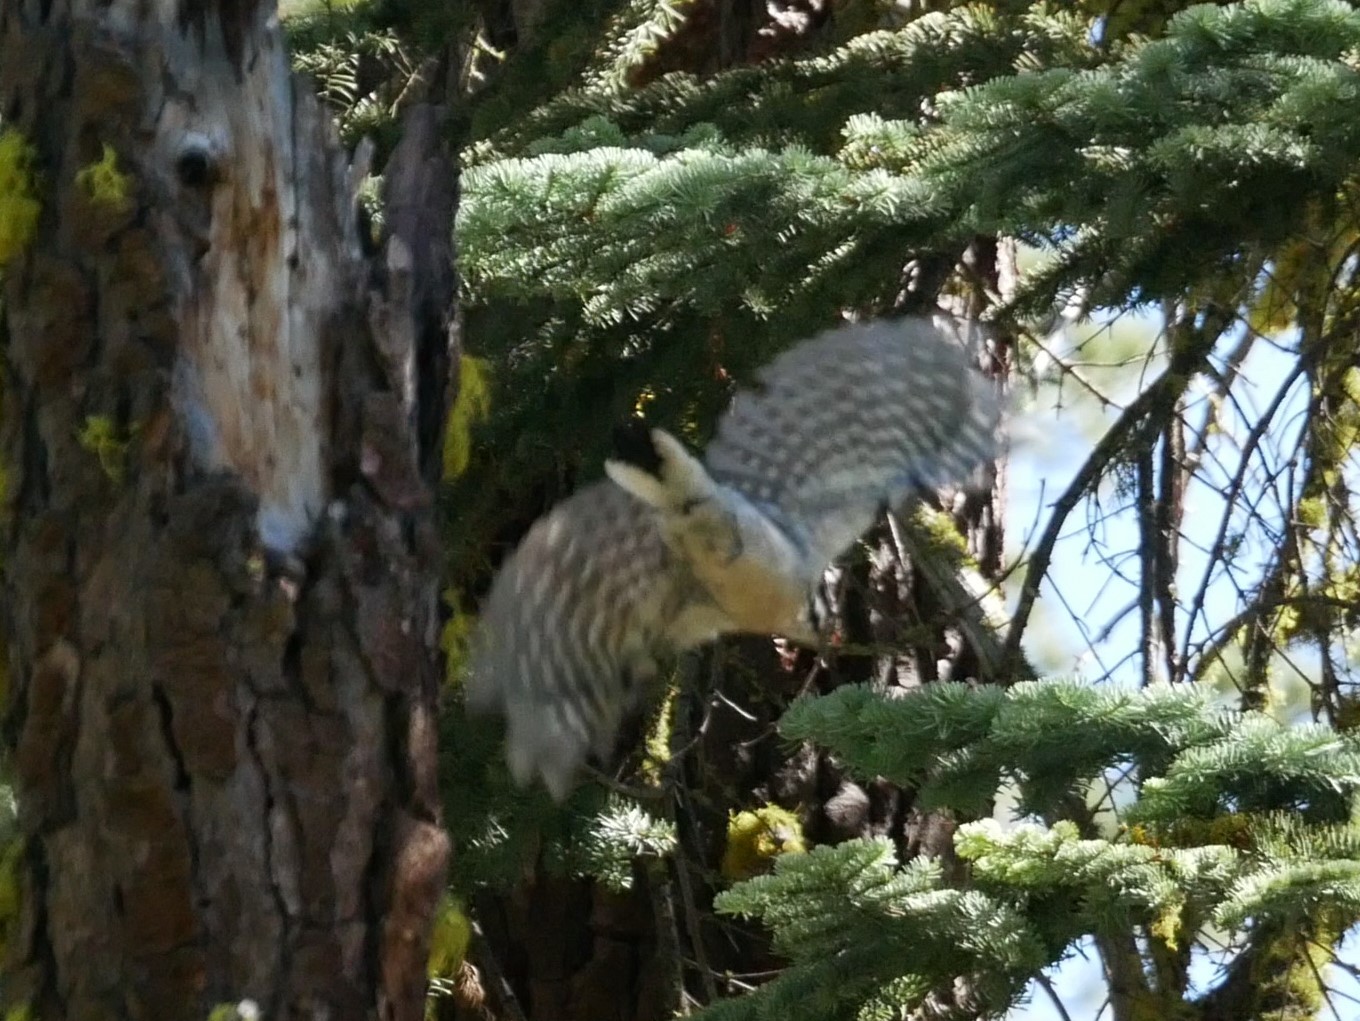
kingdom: Animalia
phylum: Chordata
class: Aves
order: Piciformes
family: Picidae
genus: Leuconotopicus
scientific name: Leuconotopicus villosus
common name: Hairy woodpecker
